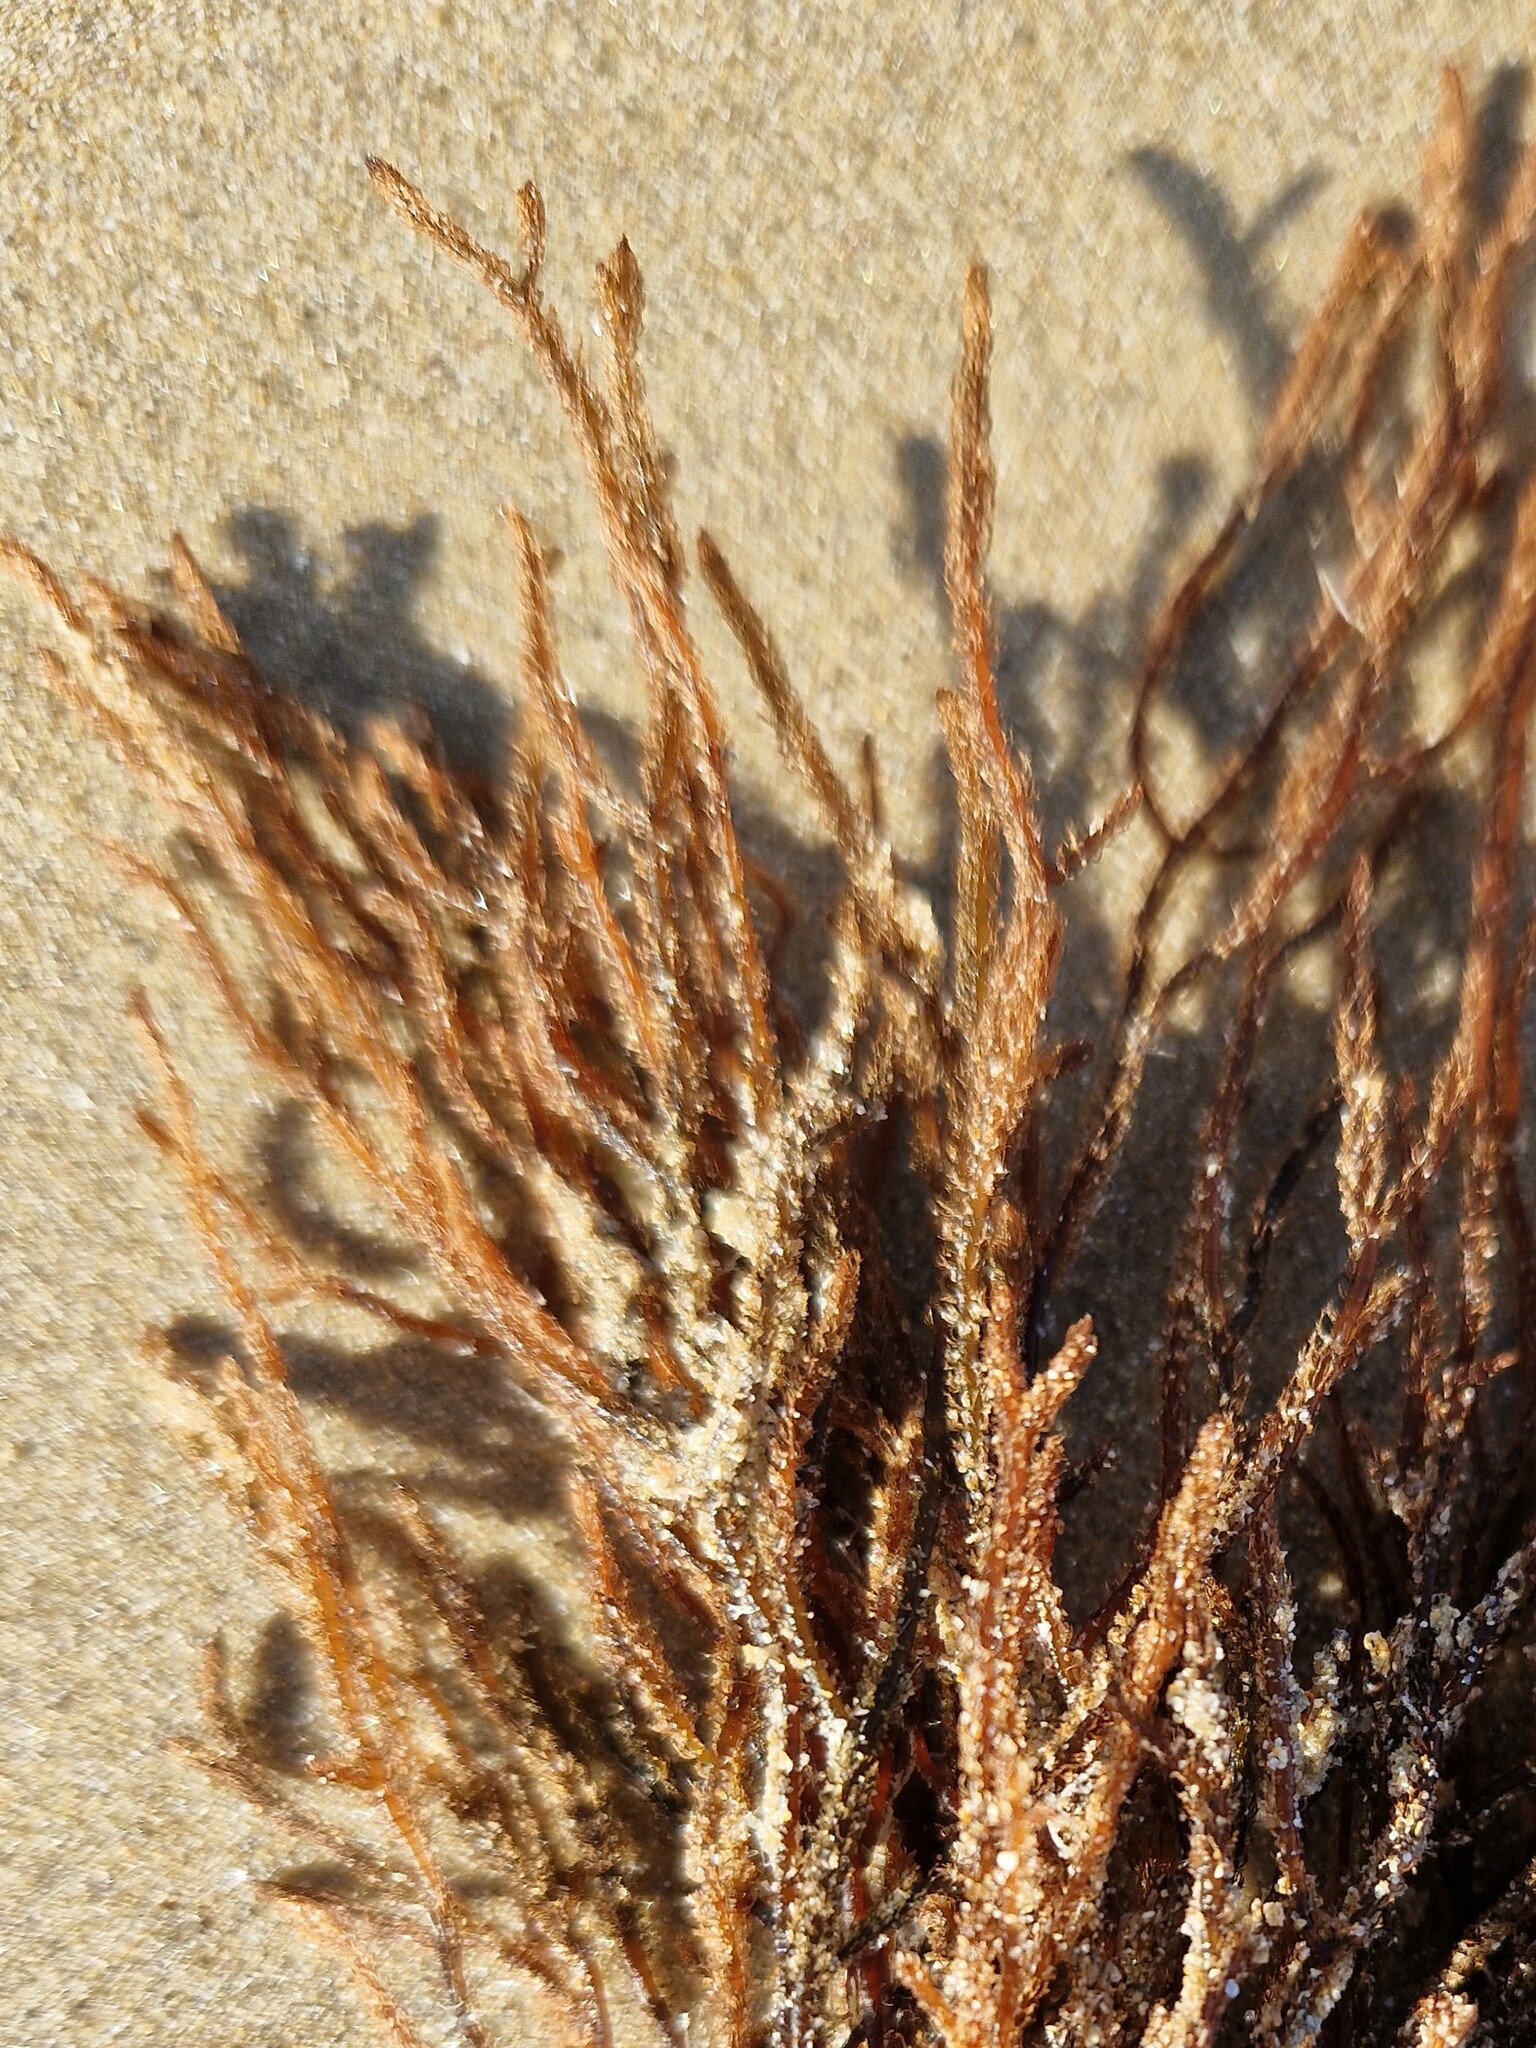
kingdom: Chromista
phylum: Ochrophyta
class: Phaeophyceae
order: Sphacelariales
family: Cladostephaceae
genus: Cladostephus
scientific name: Cladostephus spongiosus
